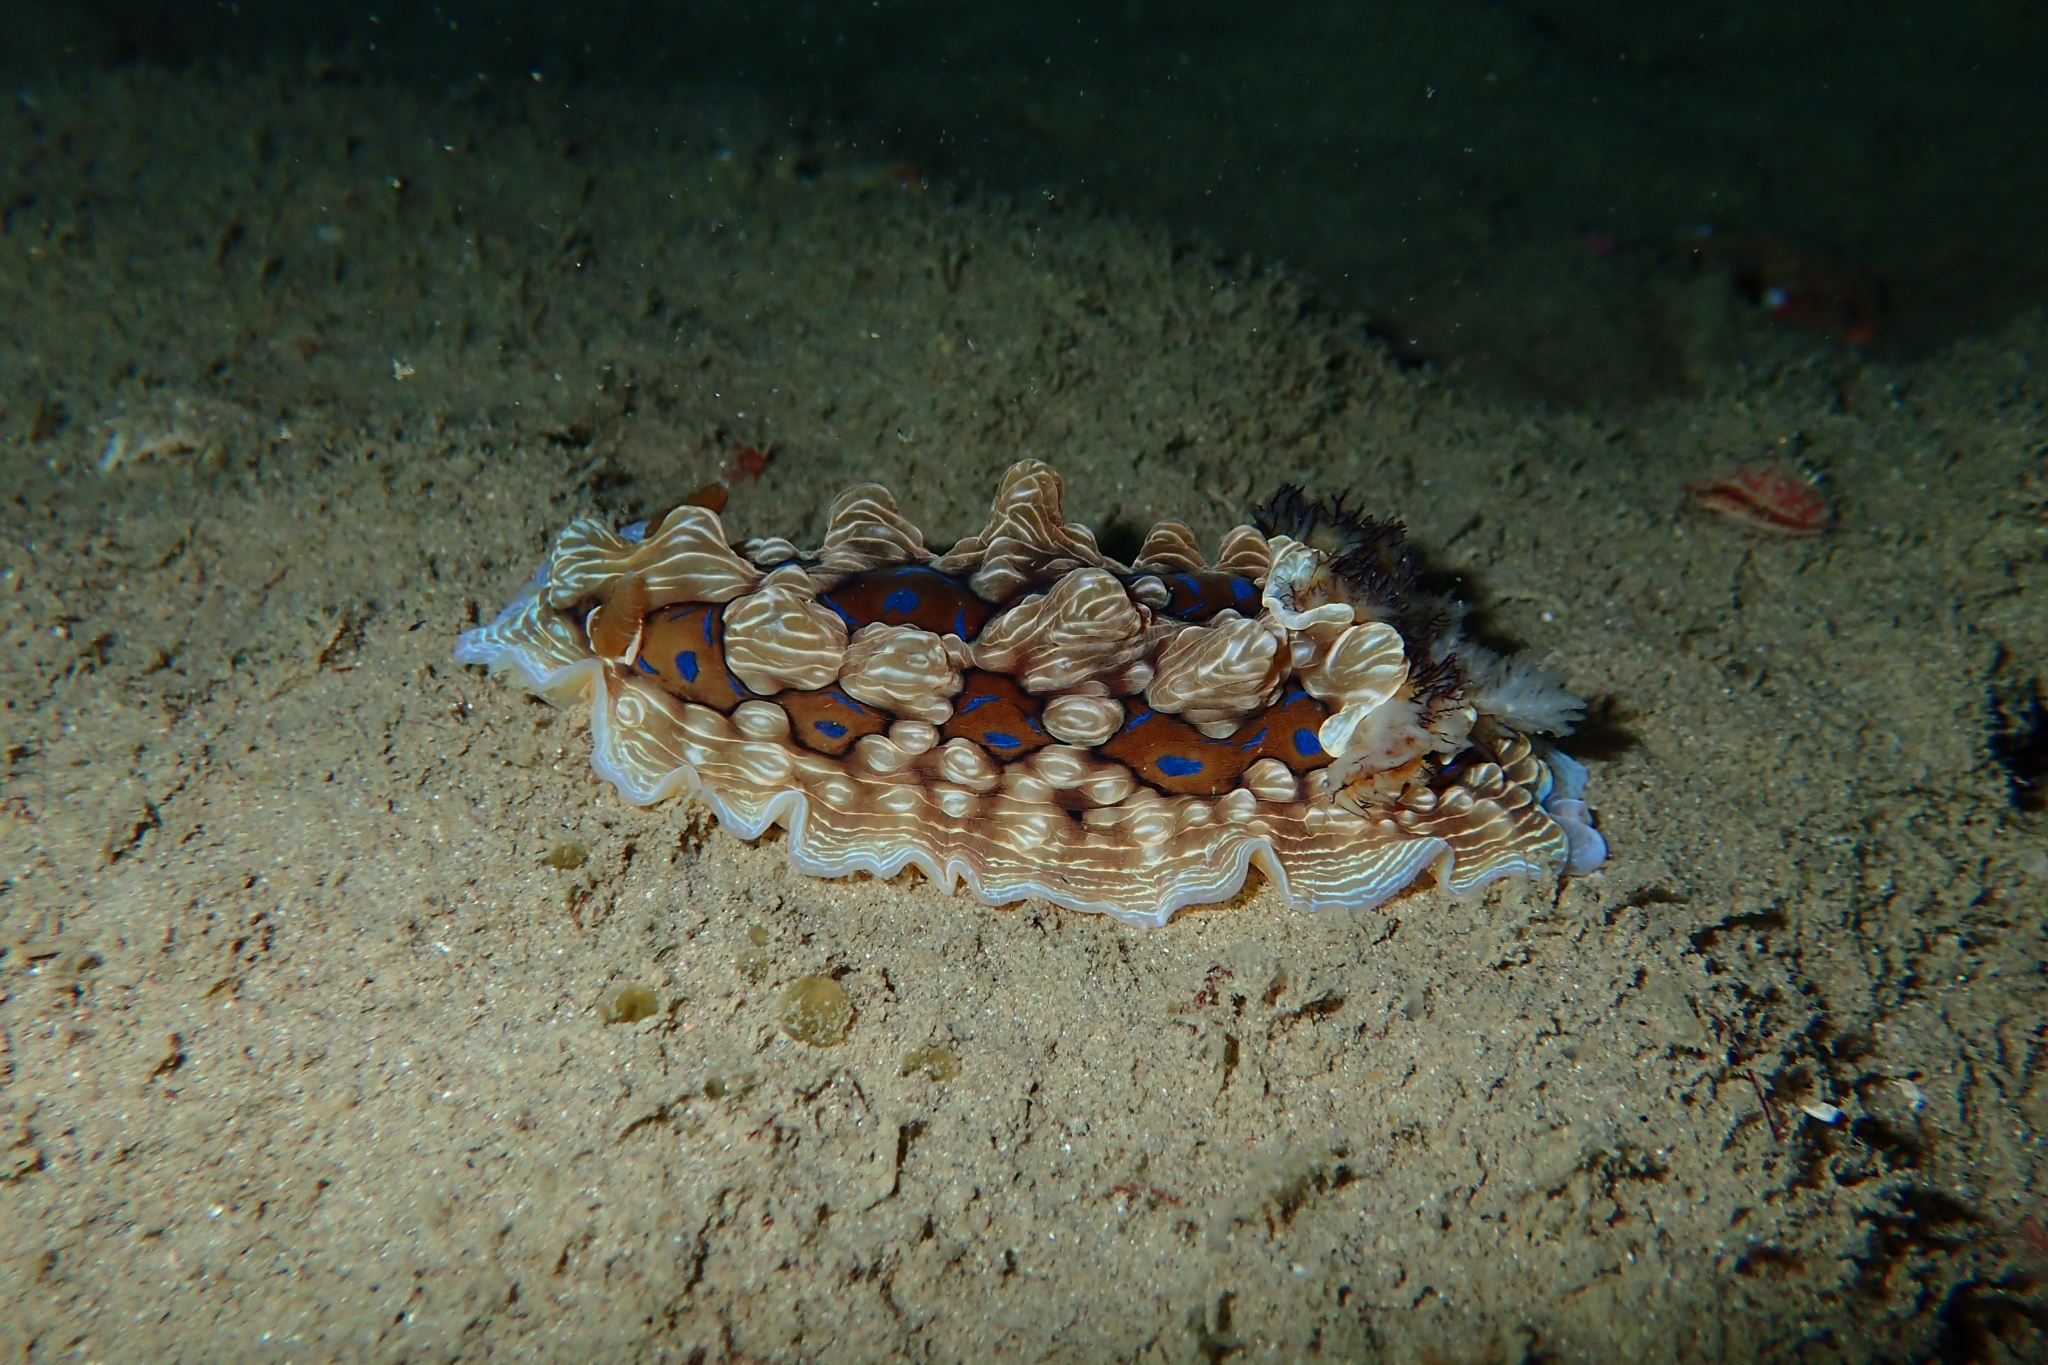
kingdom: Animalia
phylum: Mollusca
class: Gastropoda
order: Nudibranchia
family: Dendrodorididae
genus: Dendrodoris
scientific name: Dendrodoris krusensternii
